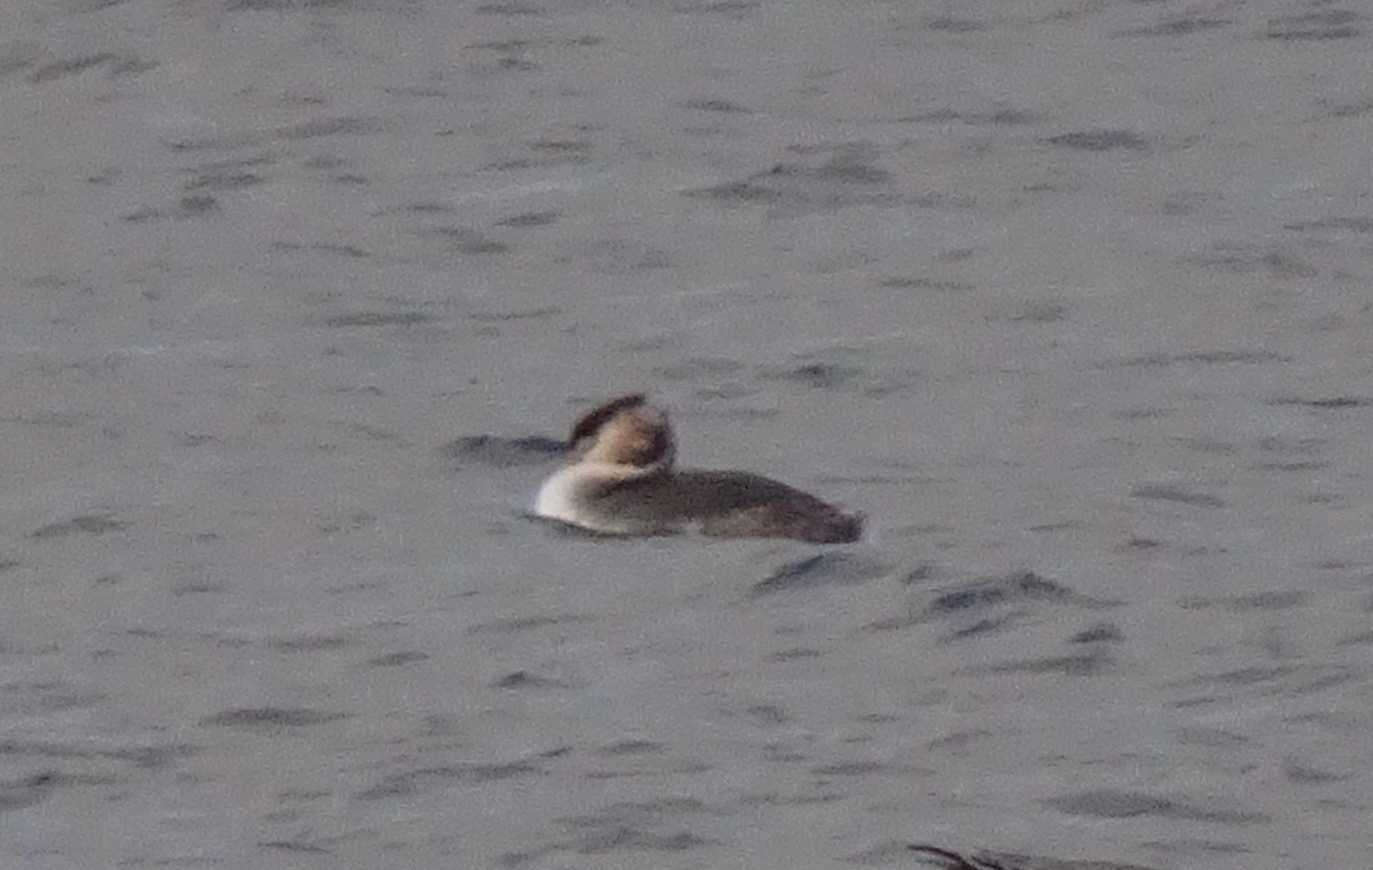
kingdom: Animalia
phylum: Chordata
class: Aves
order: Podicipediformes
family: Podicipedidae
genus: Podiceps
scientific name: Podiceps cristatus
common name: Great crested grebe
